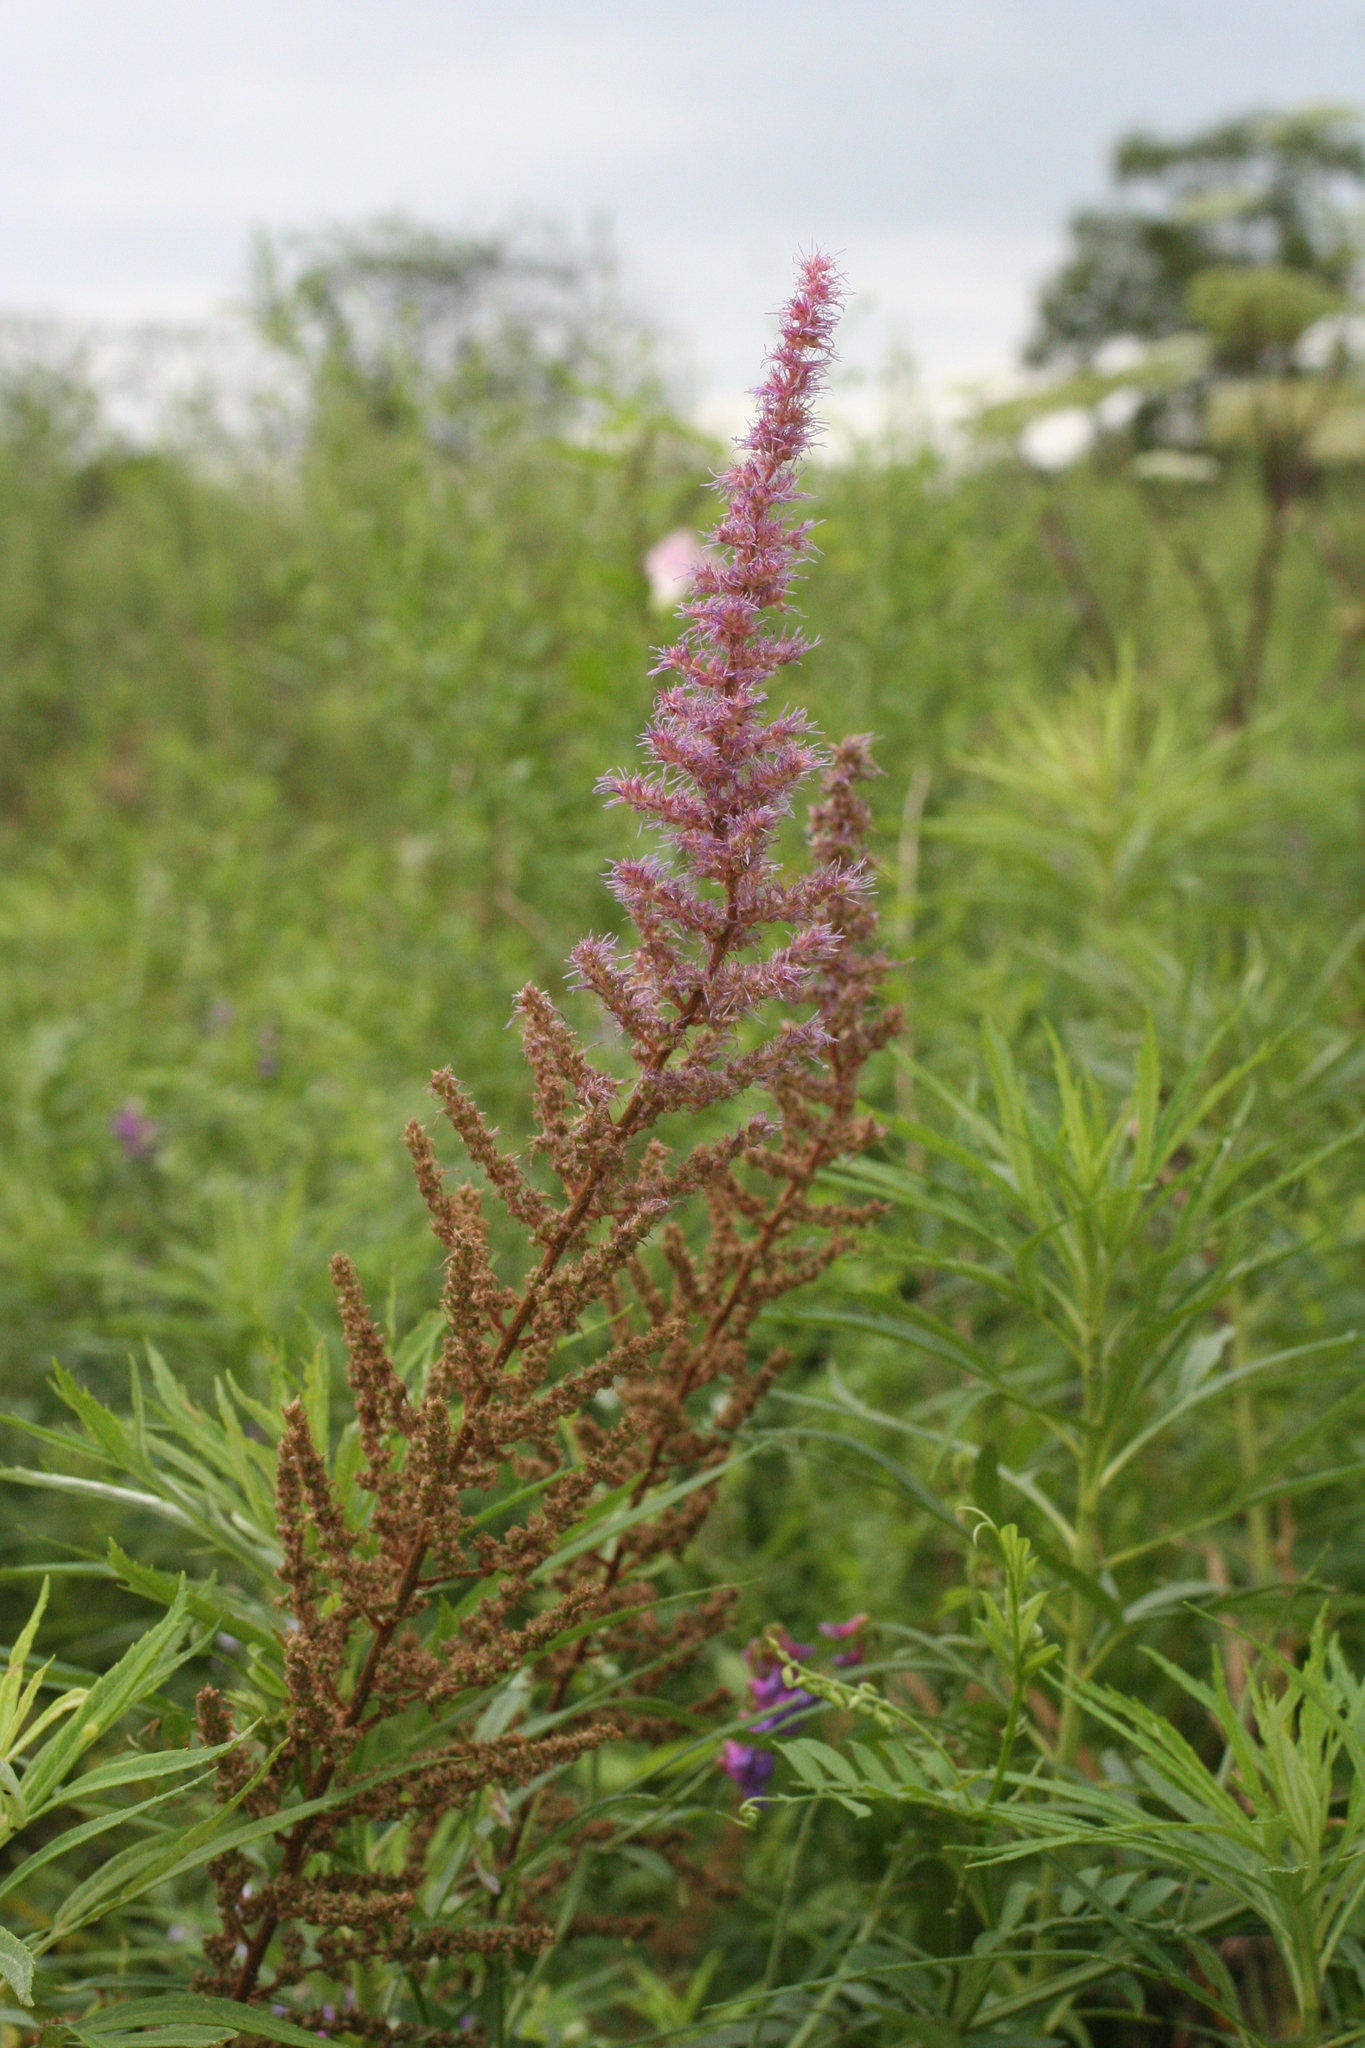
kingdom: Plantae
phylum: Tracheophyta
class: Magnoliopsida
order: Saxifragales
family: Saxifragaceae
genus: Astilbe
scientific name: Astilbe rubra
